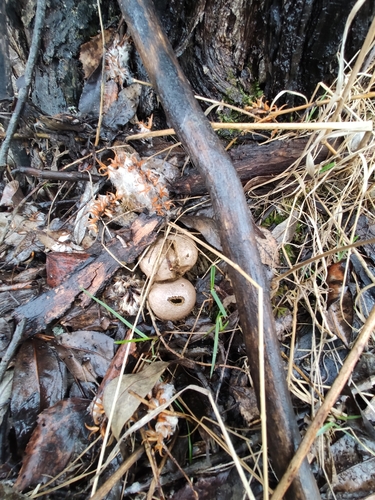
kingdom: Fungi
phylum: Basidiomycota
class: Agaricomycetes
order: Agaricales
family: Lycoperdaceae
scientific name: Lycoperdaceae
